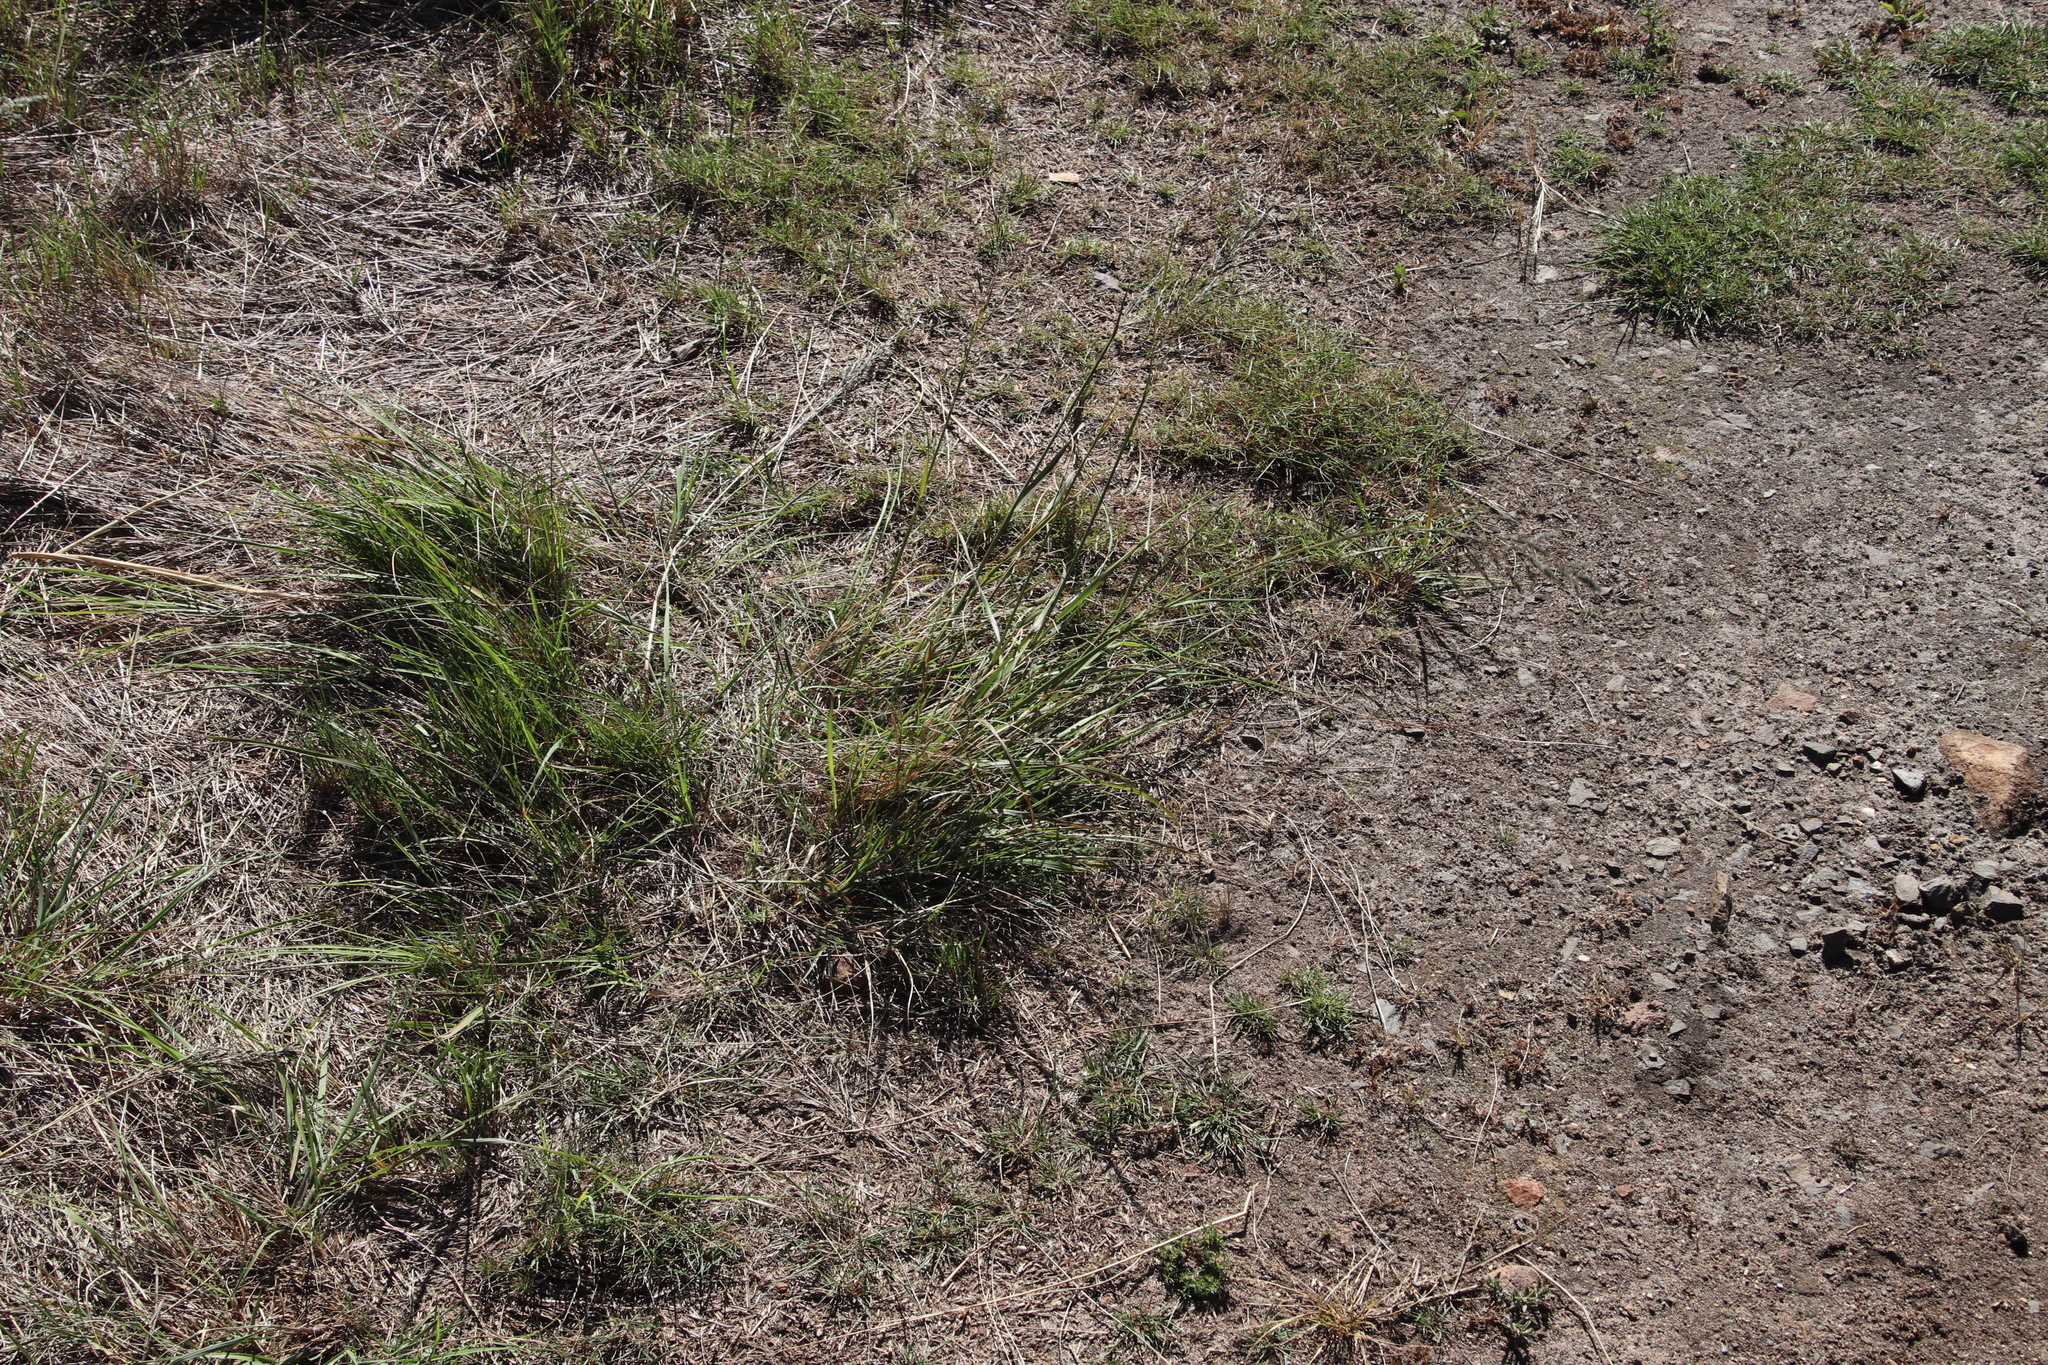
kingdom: Plantae
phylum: Tracheophyta
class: Liliopsida
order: Poales
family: Poaceae
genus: Eragrostis
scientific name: Eragrostis curvula
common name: African love-grass
